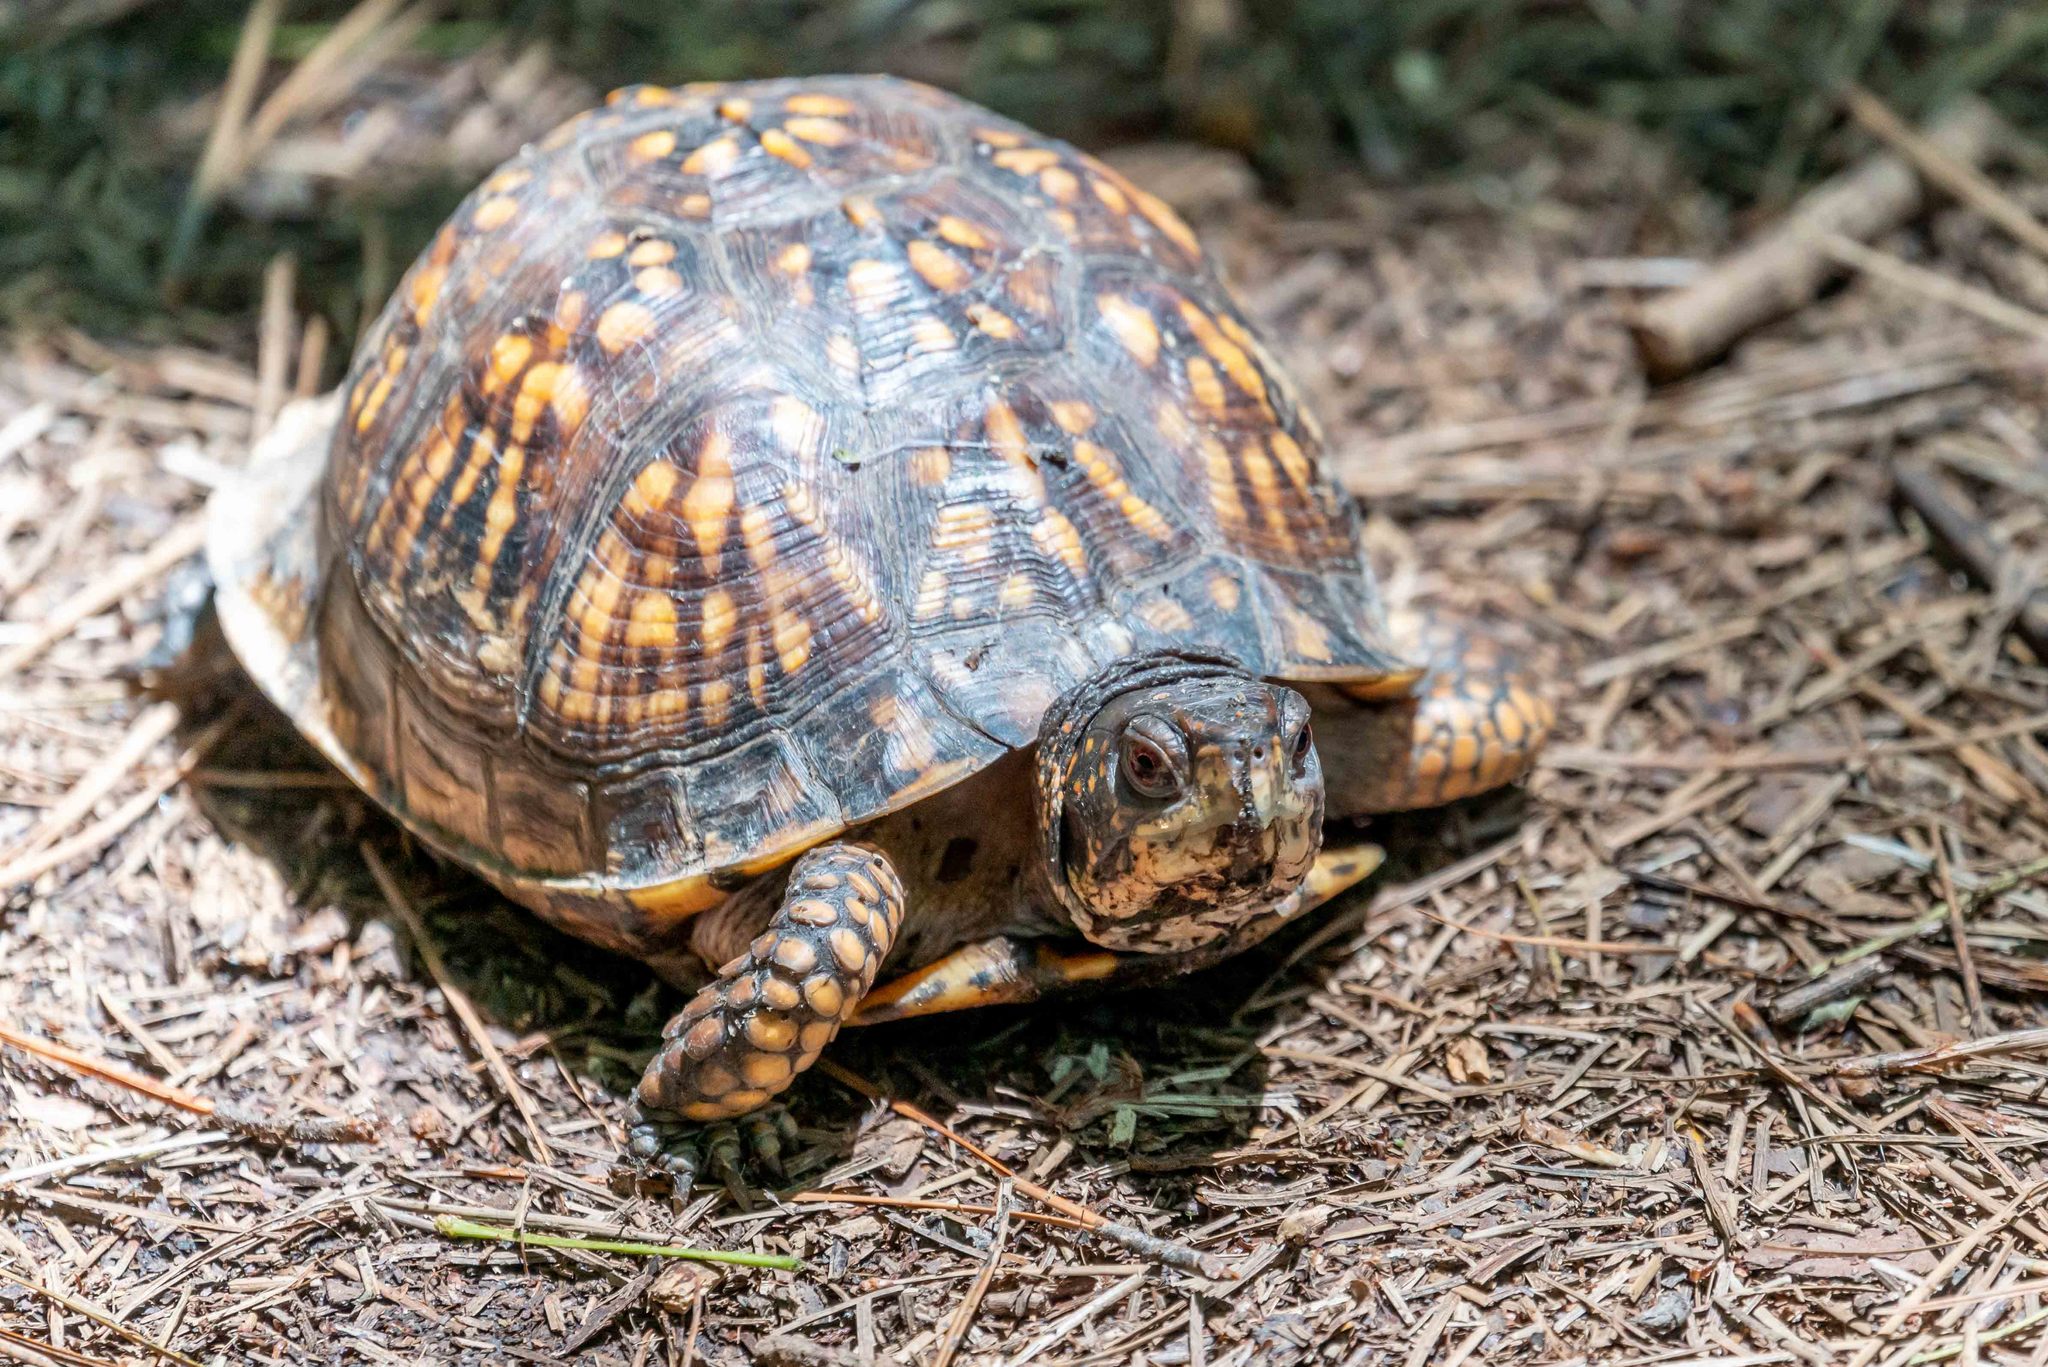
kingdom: Animalia
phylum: Chordata
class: Testudines
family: Emydidae
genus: Terrapene
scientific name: Terrapene carolina
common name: Common box turtle
